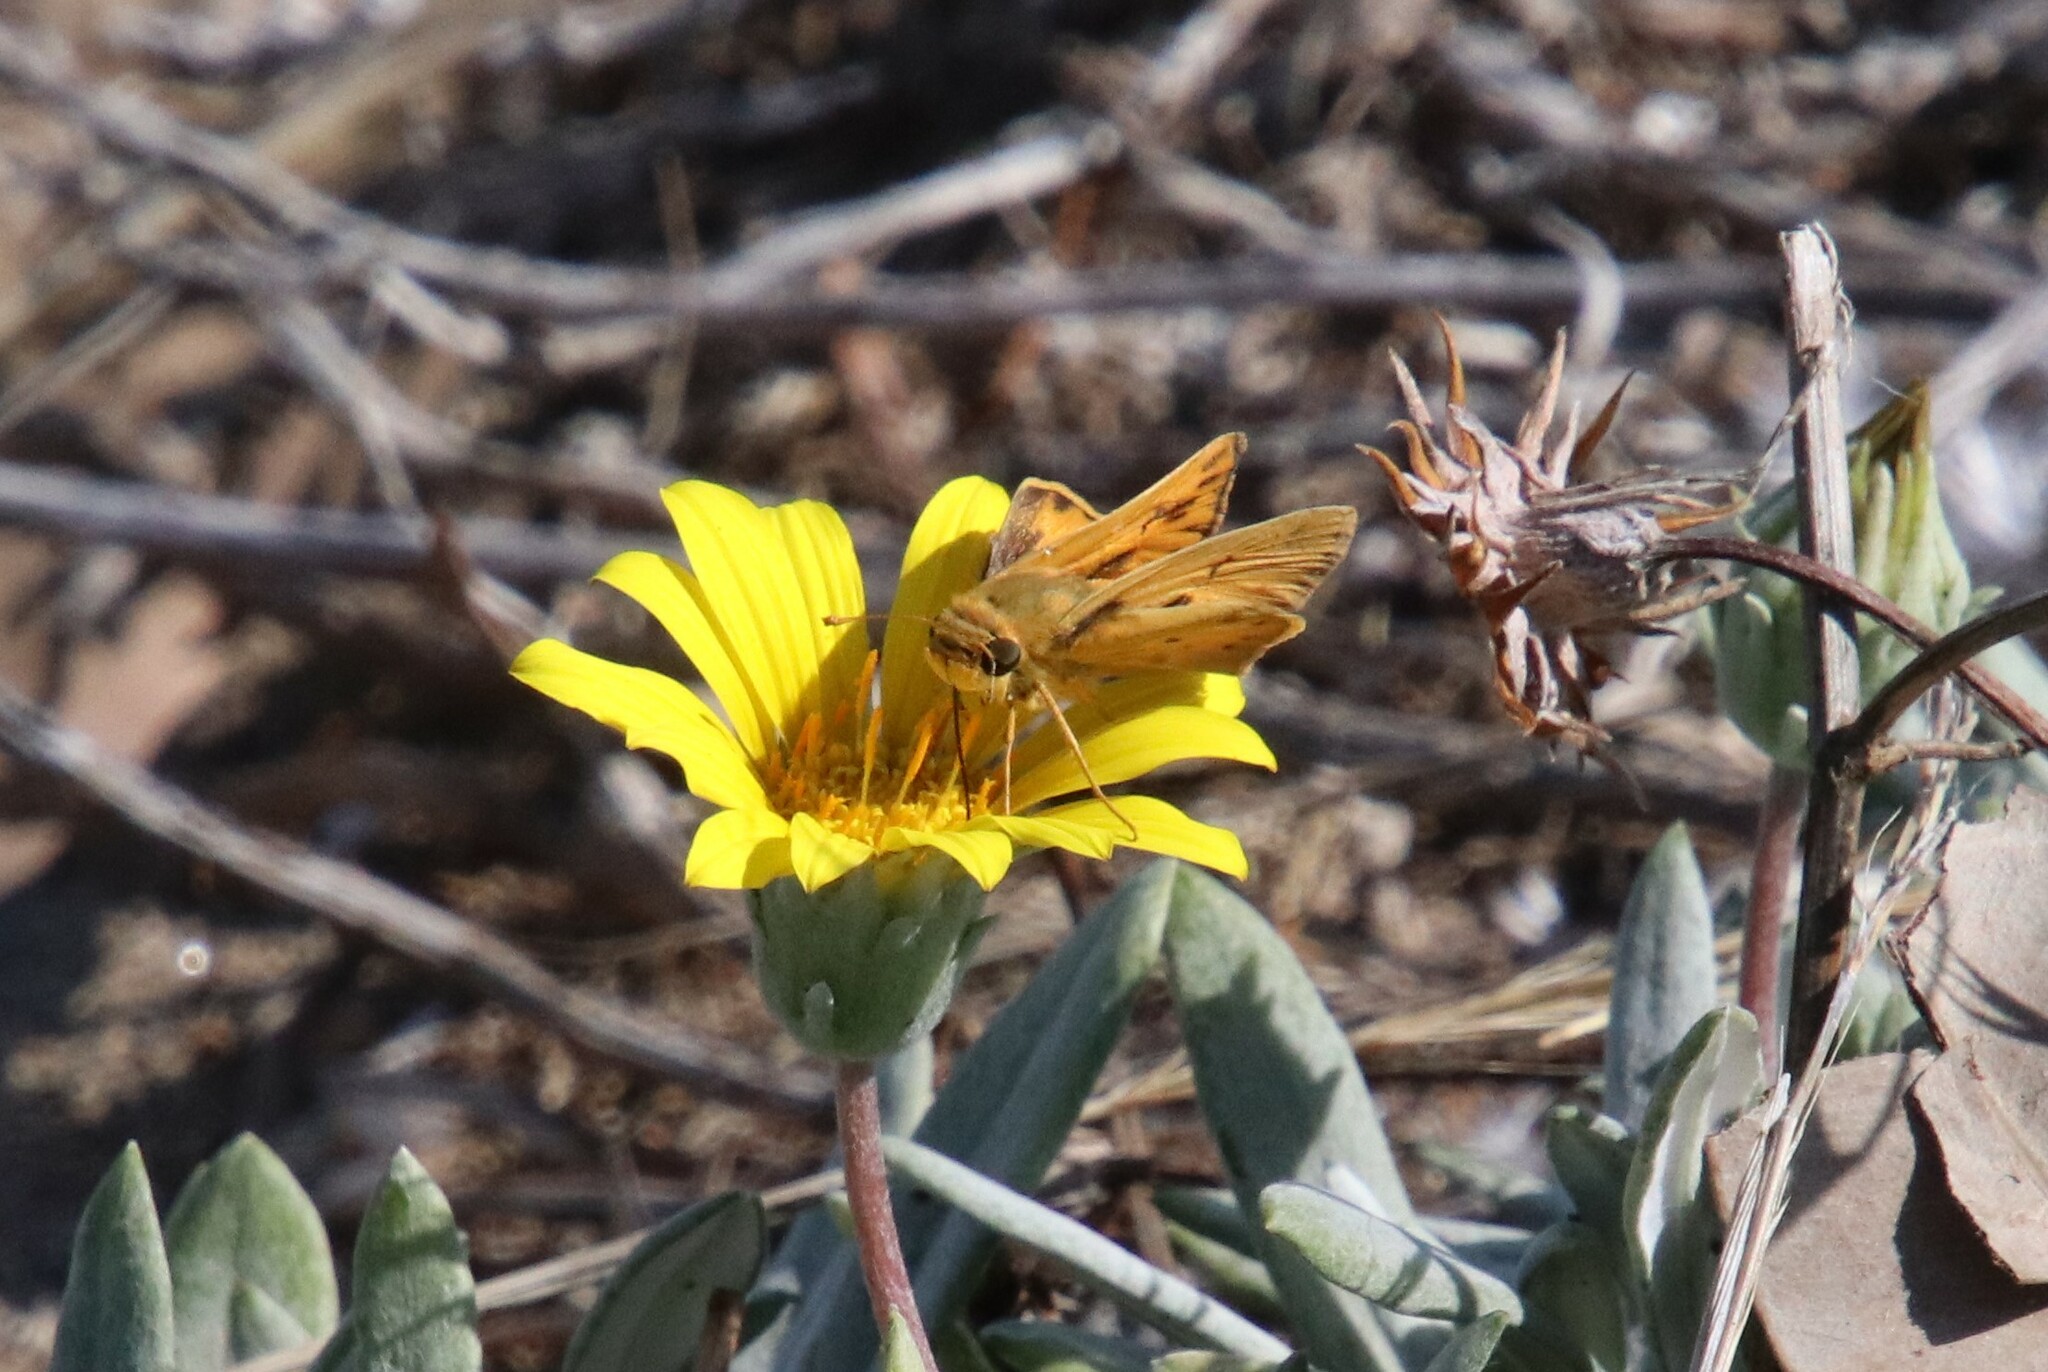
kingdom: Animalia
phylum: Arthropoda
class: Insecta
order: Lepidoptera
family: Hesperiidae
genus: Hylephila
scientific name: Hylephila phyleus
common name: Fiery skipper
